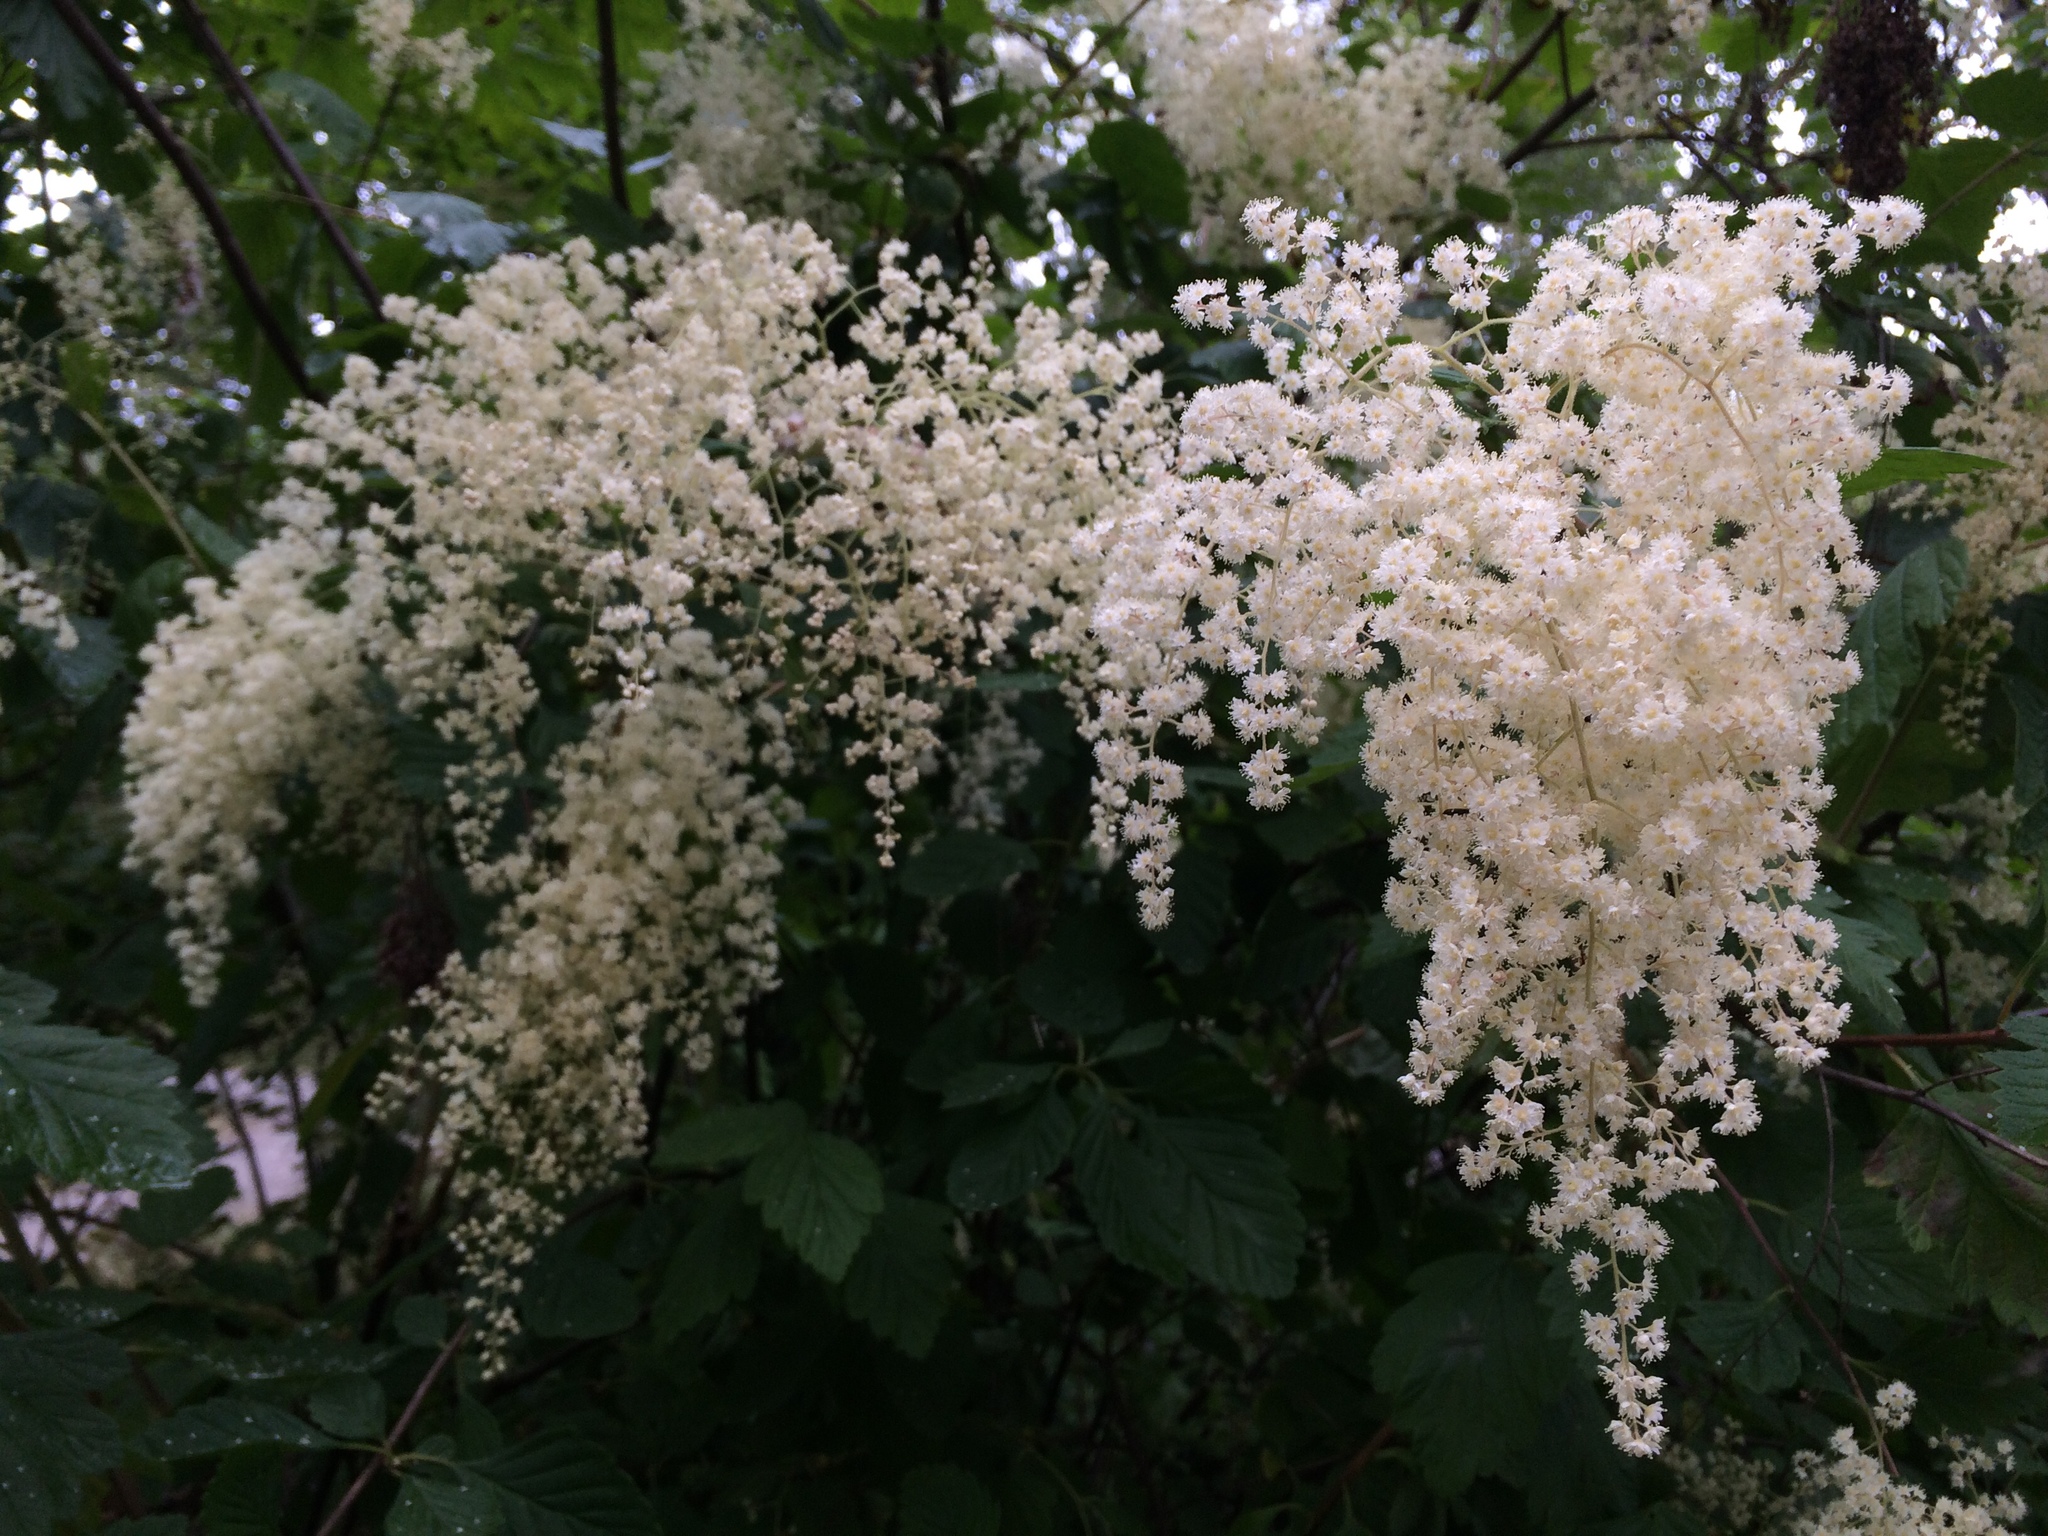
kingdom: Plantae
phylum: Tracheophyta
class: Magnoliopsida
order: Rosales
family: Rosaceae
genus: Holodiscus
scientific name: Holodiscus discolor
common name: Oceanspray
